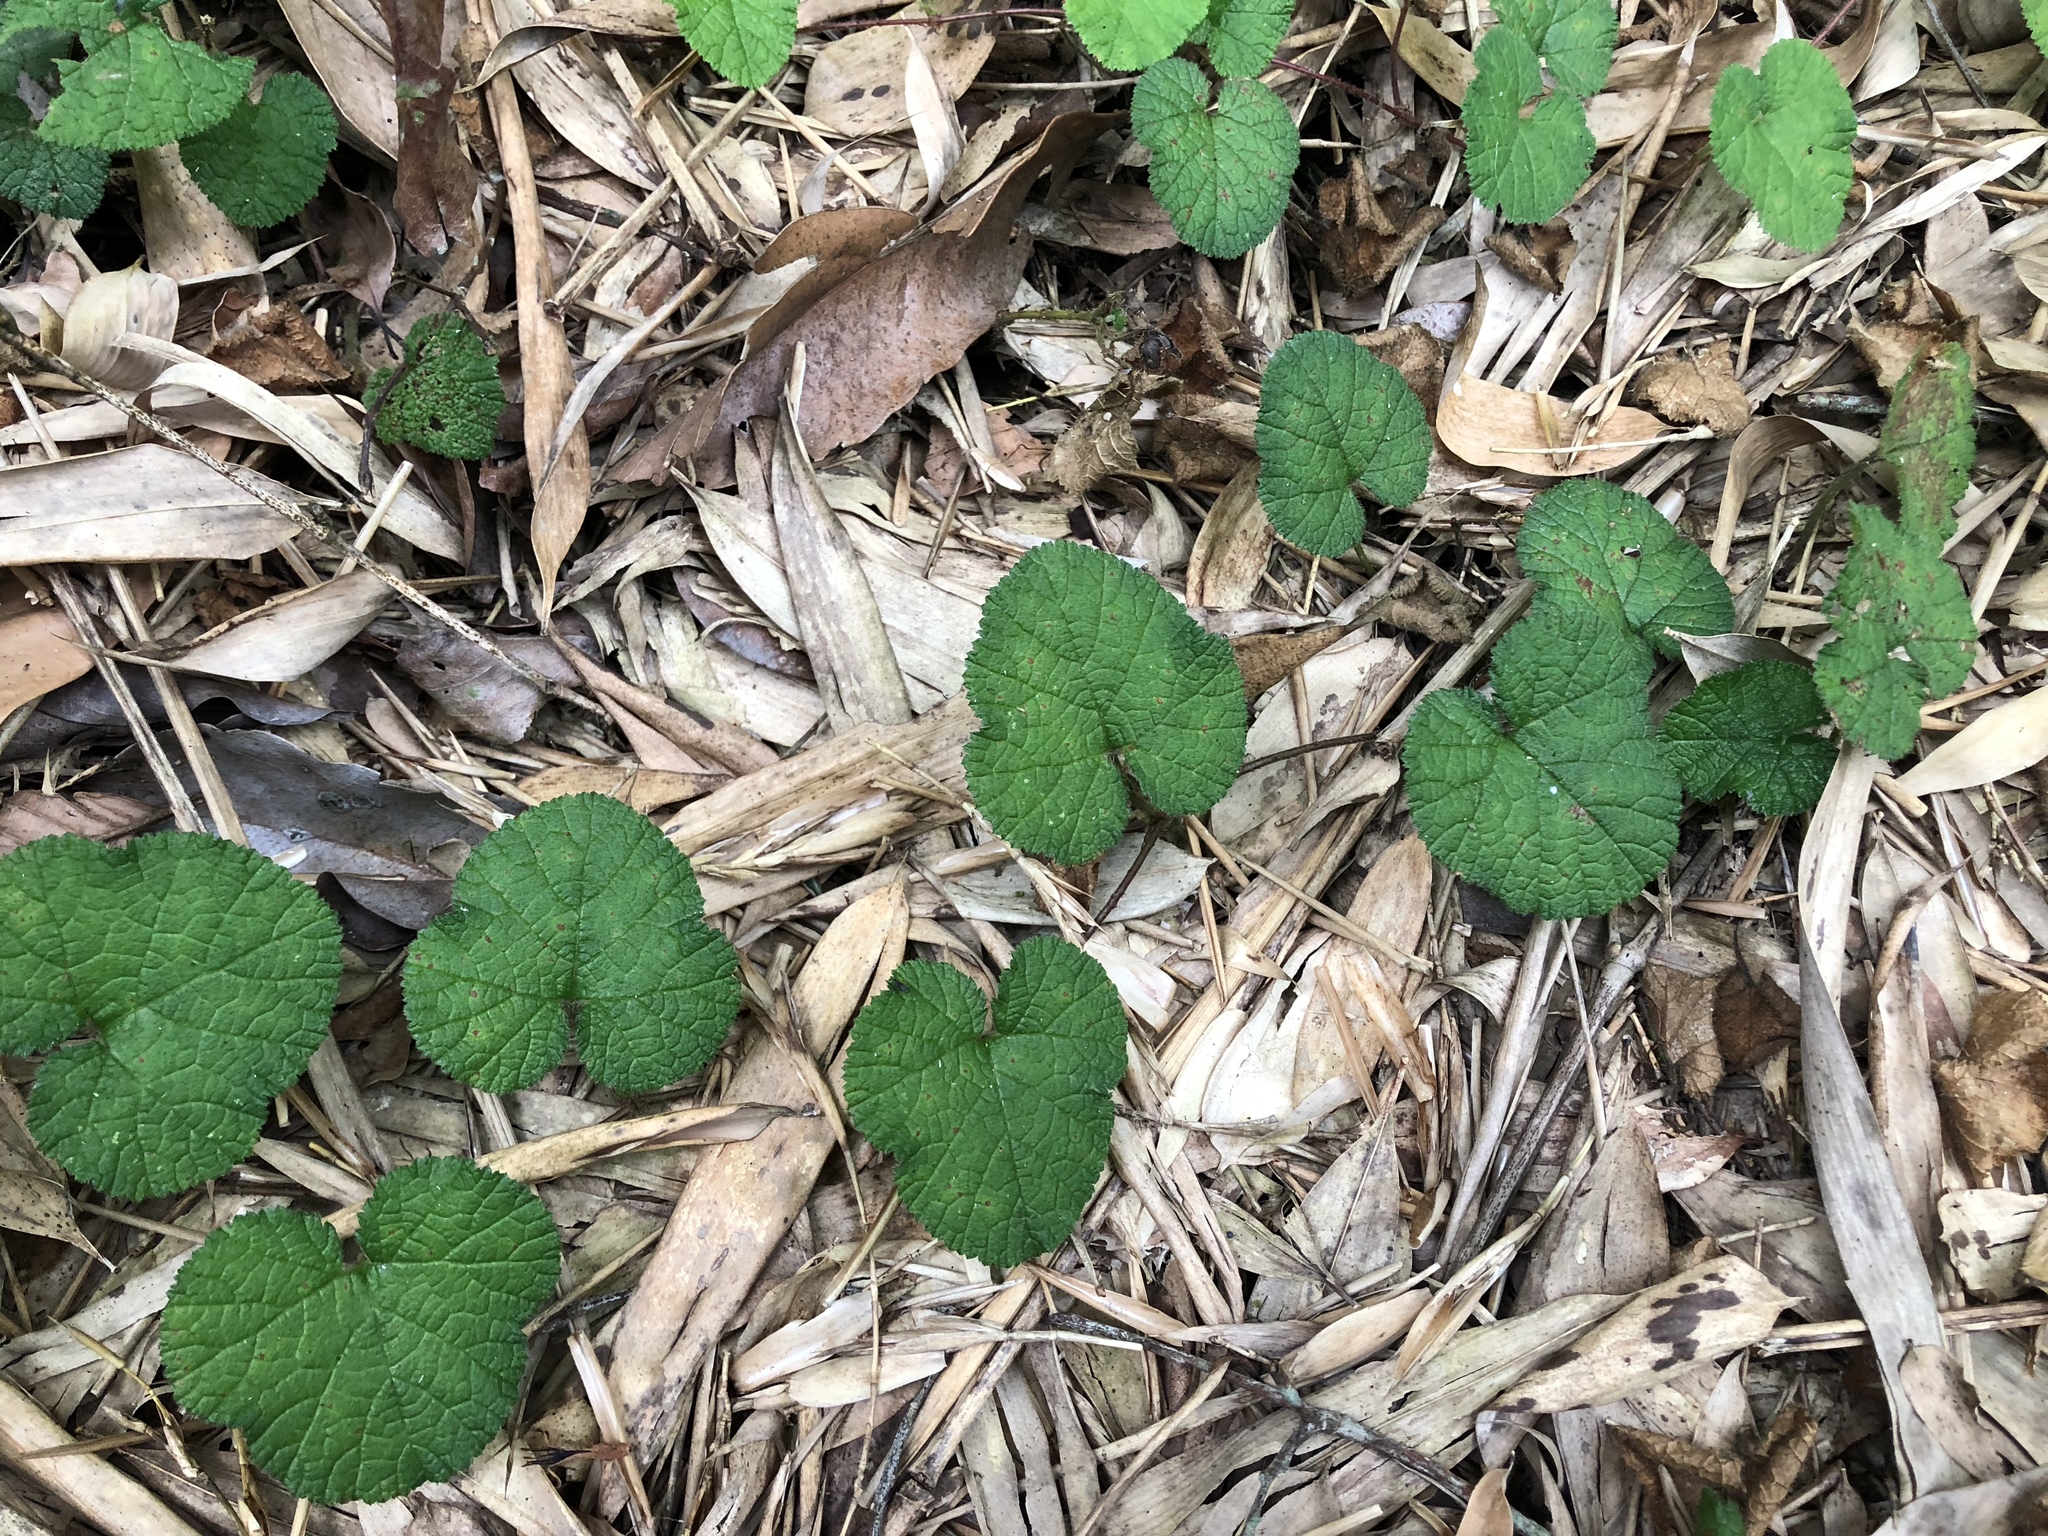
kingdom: Plantae
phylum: Tracheophyta
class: Magnoliopsida
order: Rosales
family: Rosaceae
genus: Rubus
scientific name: Rubus pectinellus
